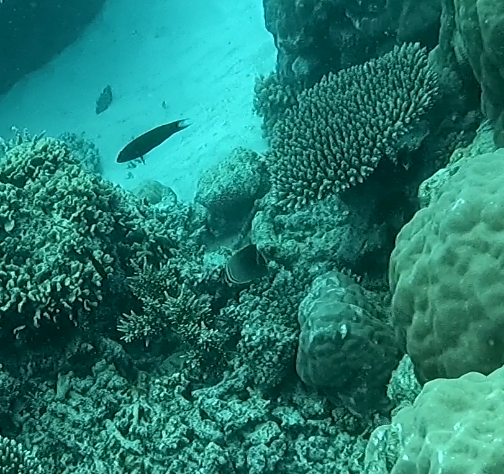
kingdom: Animalia
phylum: Chordata
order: Perciformes
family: Chaetodontidae
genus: Chaetodon
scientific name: Chaetodon baronessa
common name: Triangular butterflyfish
